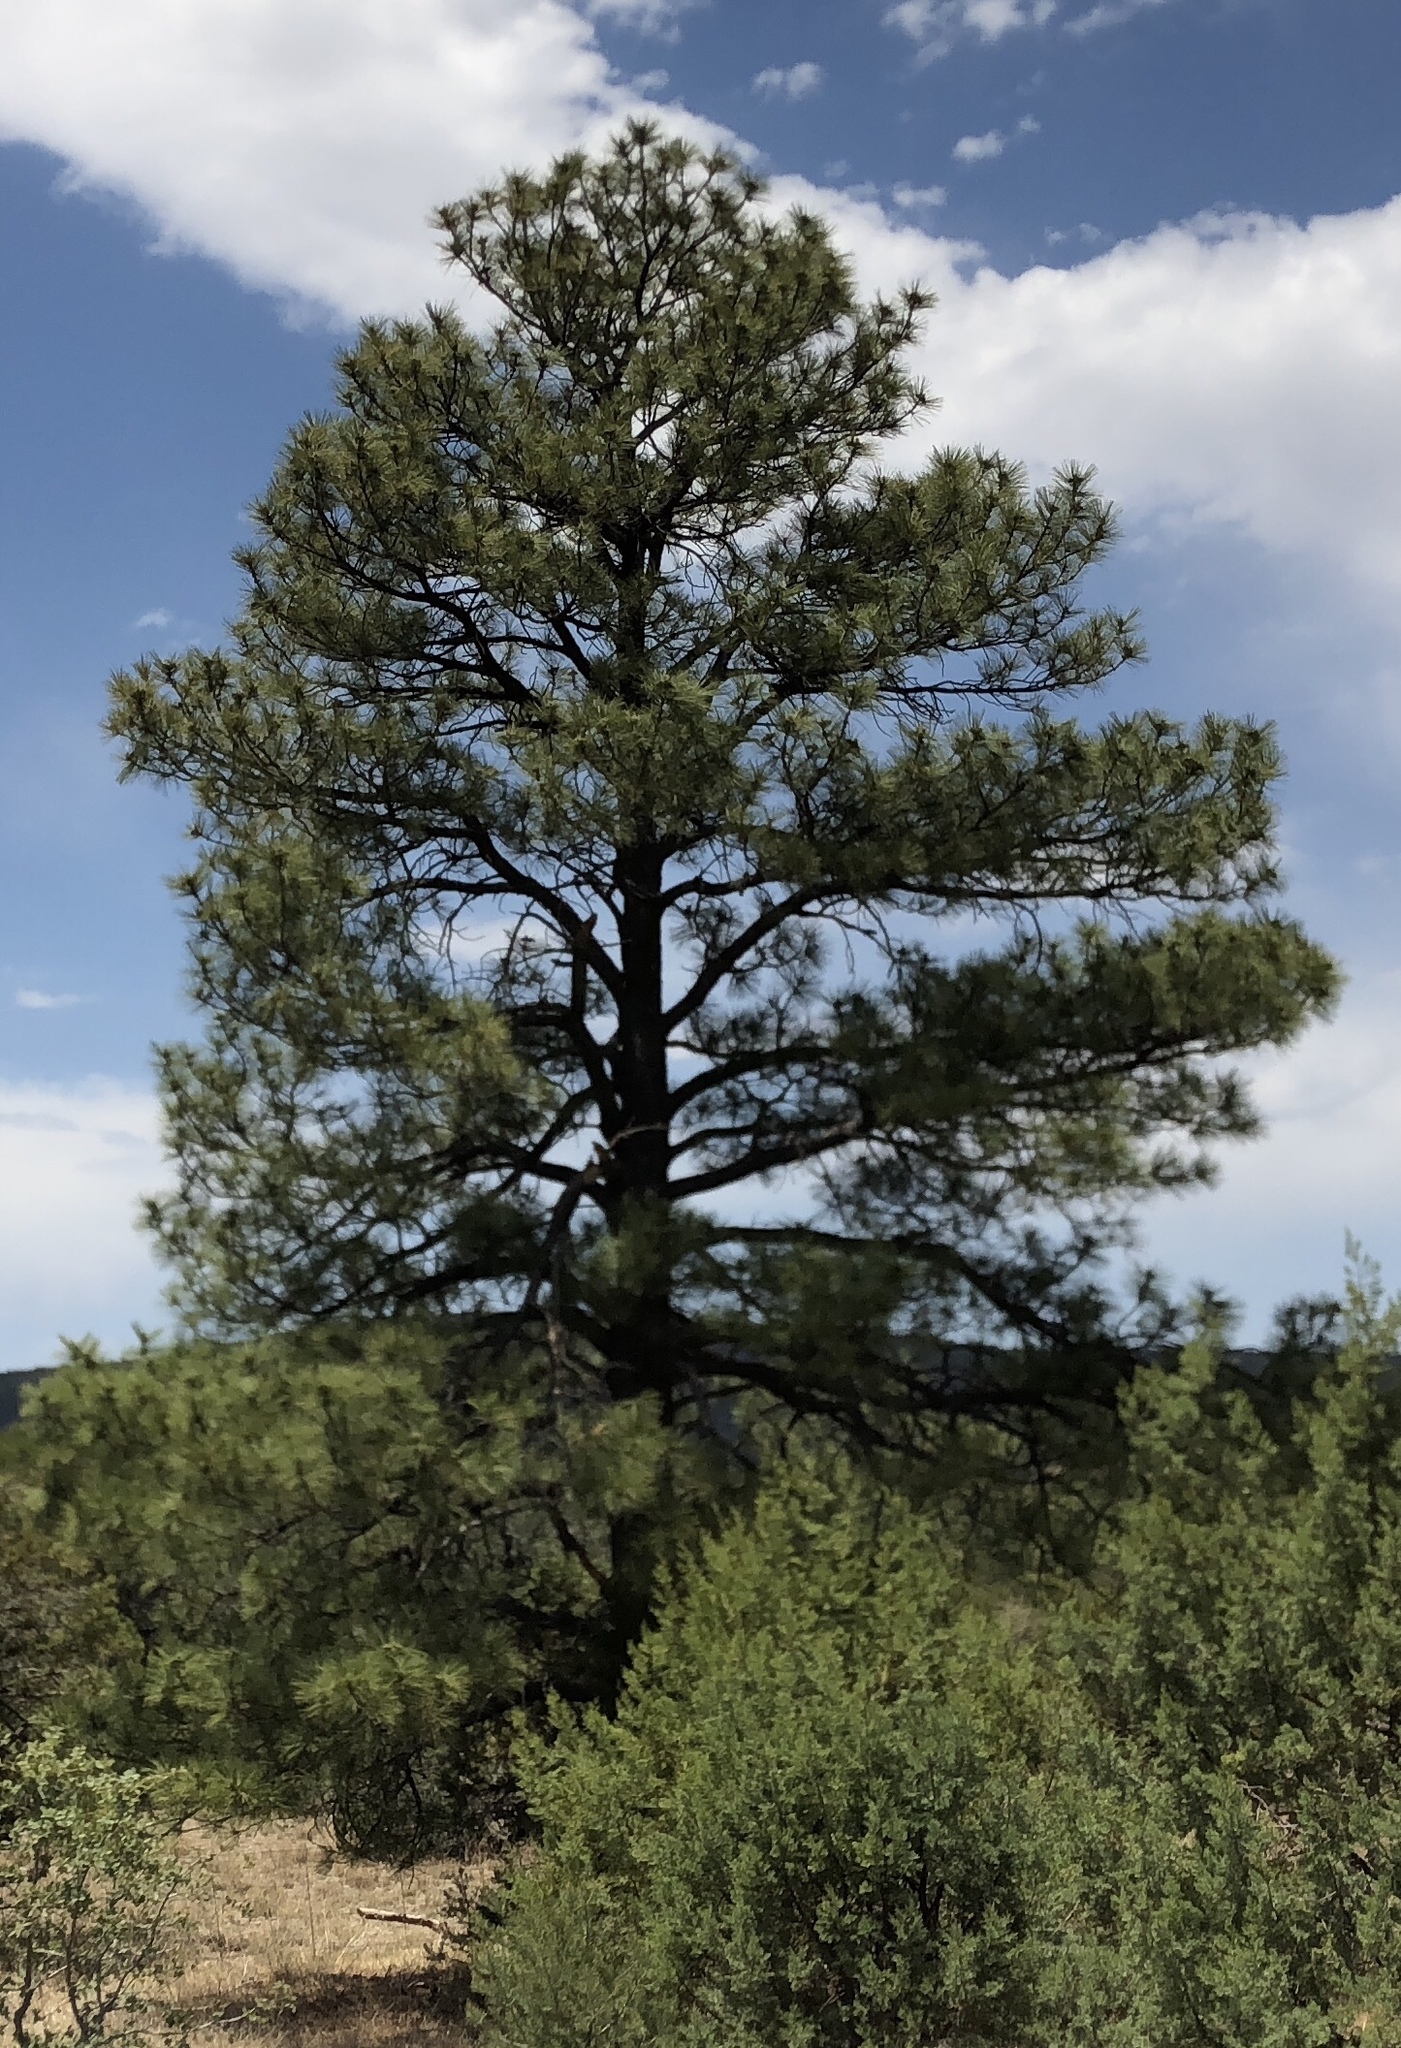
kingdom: Plantae
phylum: Tracheophyta
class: Pinopsida
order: Pinales
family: Pinaceae
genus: Pinus
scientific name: Pinus ponderosa
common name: Western yellow-pine
